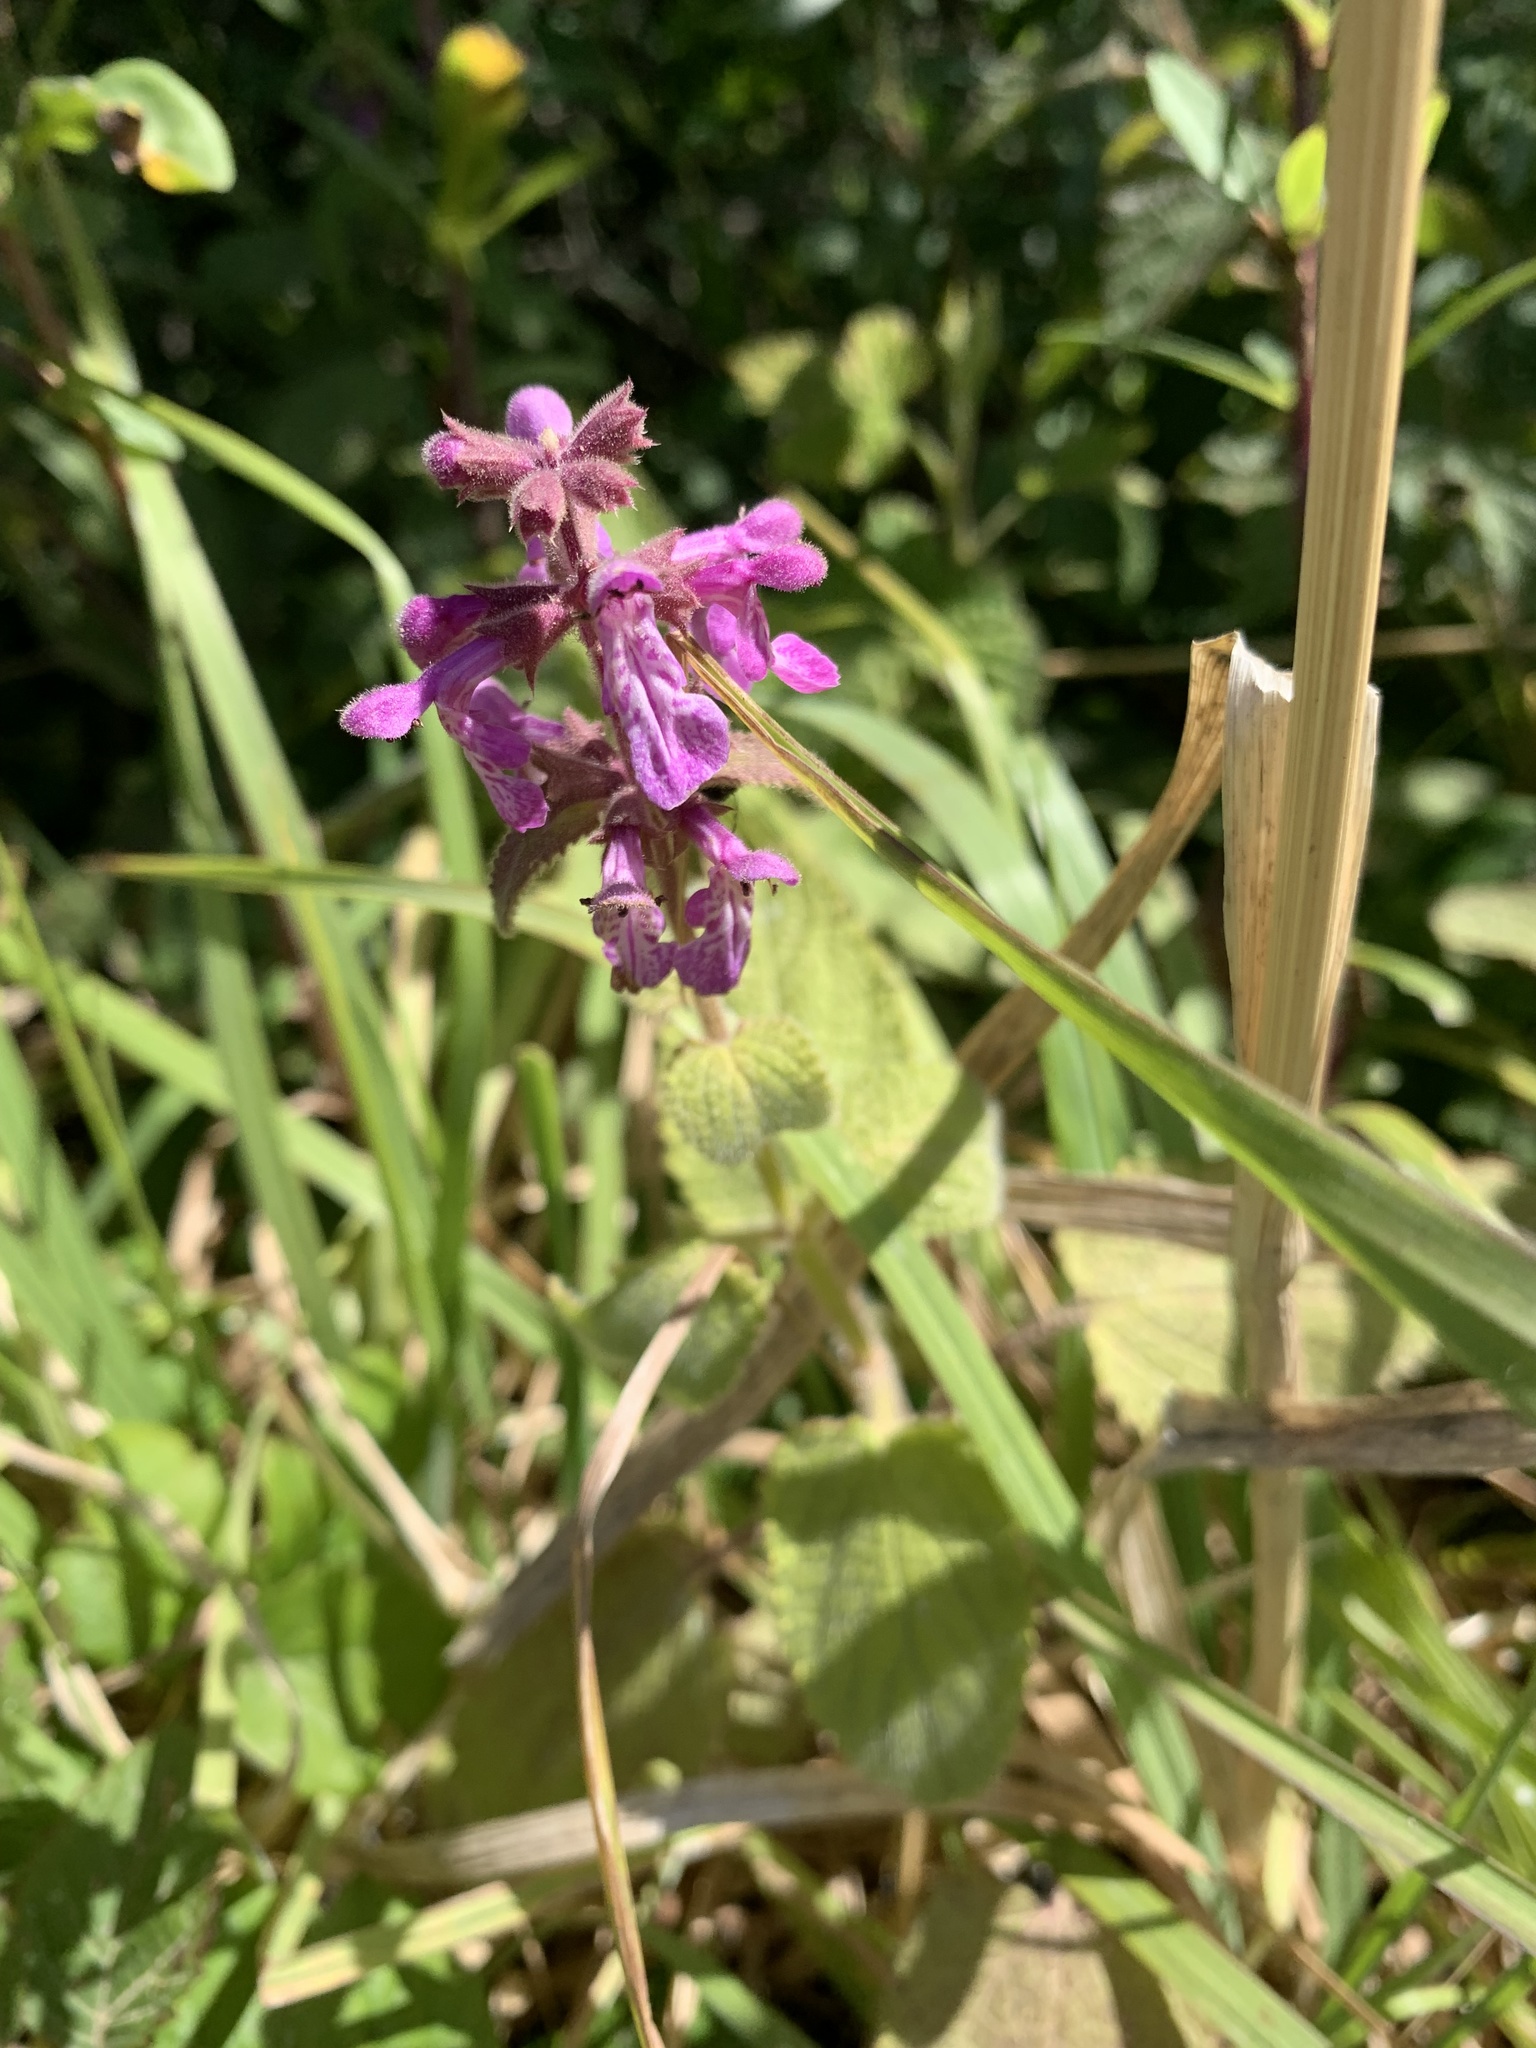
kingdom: Plantae
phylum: Tracheophyta
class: Magnoliopsida
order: Lamiales
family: Lamiaceae
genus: Stachys
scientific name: Stachys chamissonis
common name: Coastal hedge-nettle
